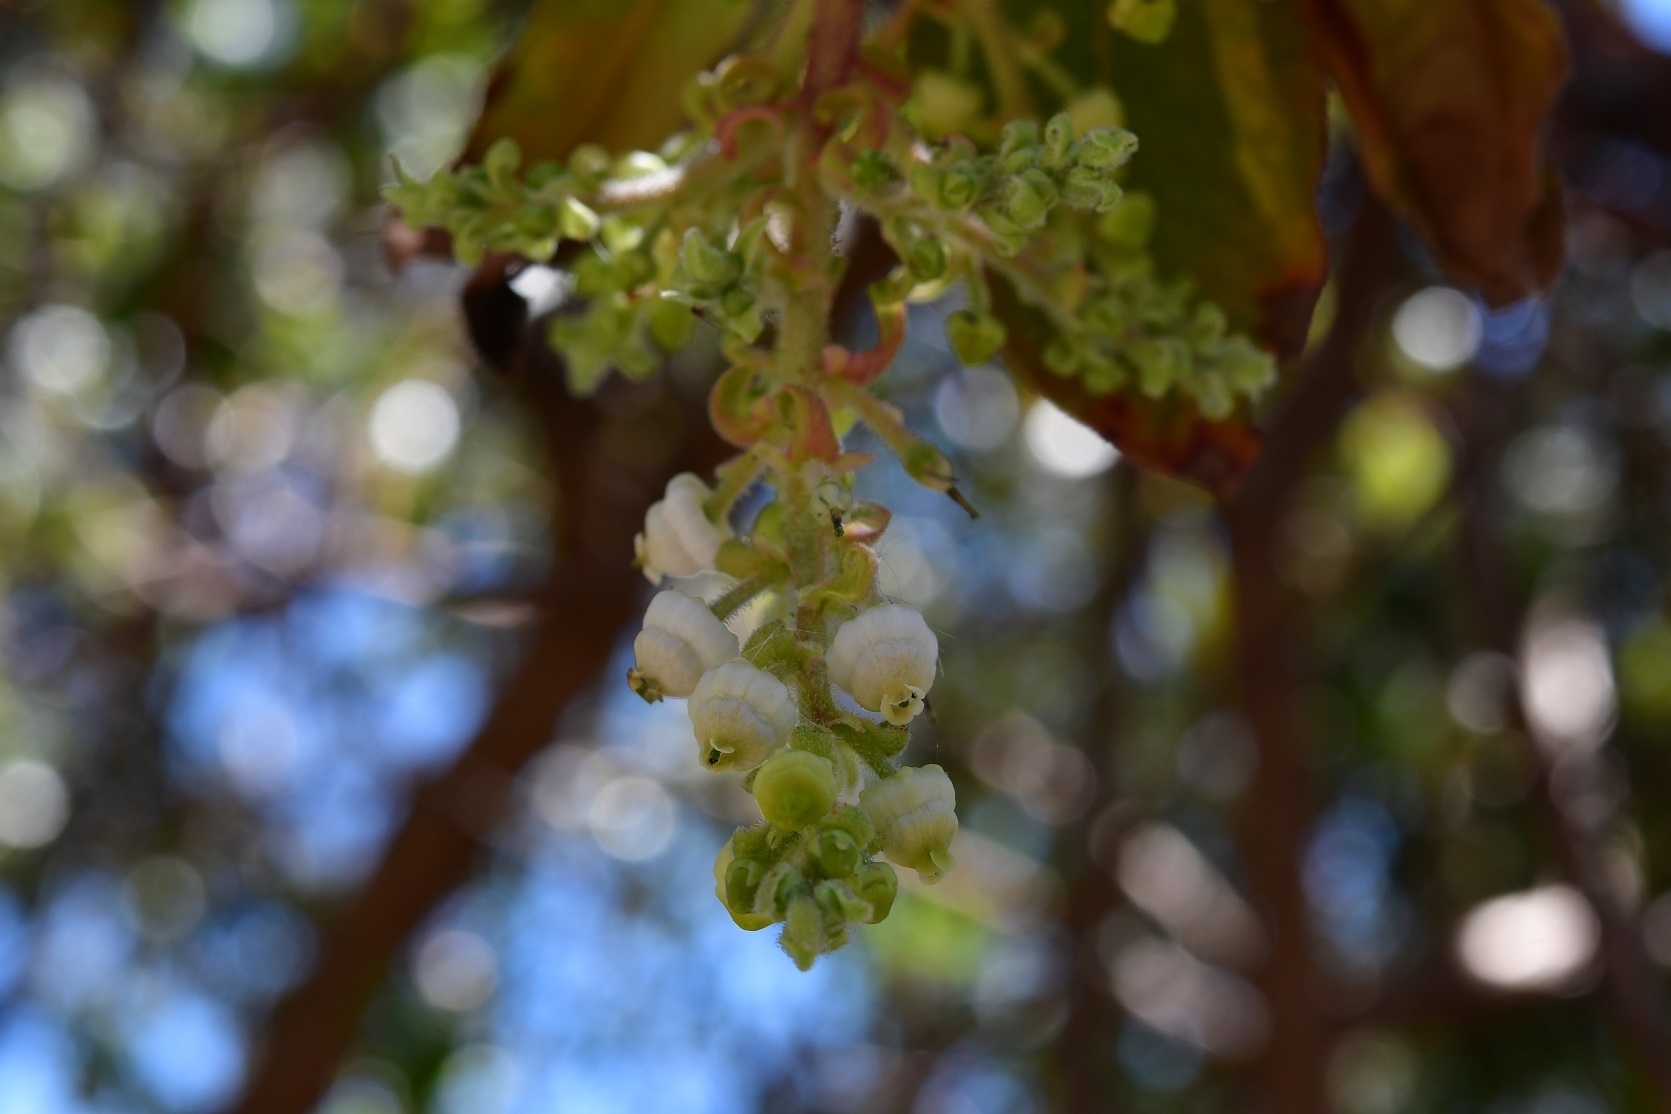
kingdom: Plantae
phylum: Tracheophyta
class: Magnoliopsida
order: Ericales
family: Ericaceae
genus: Arbutus
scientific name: Arbutus xalapensis
